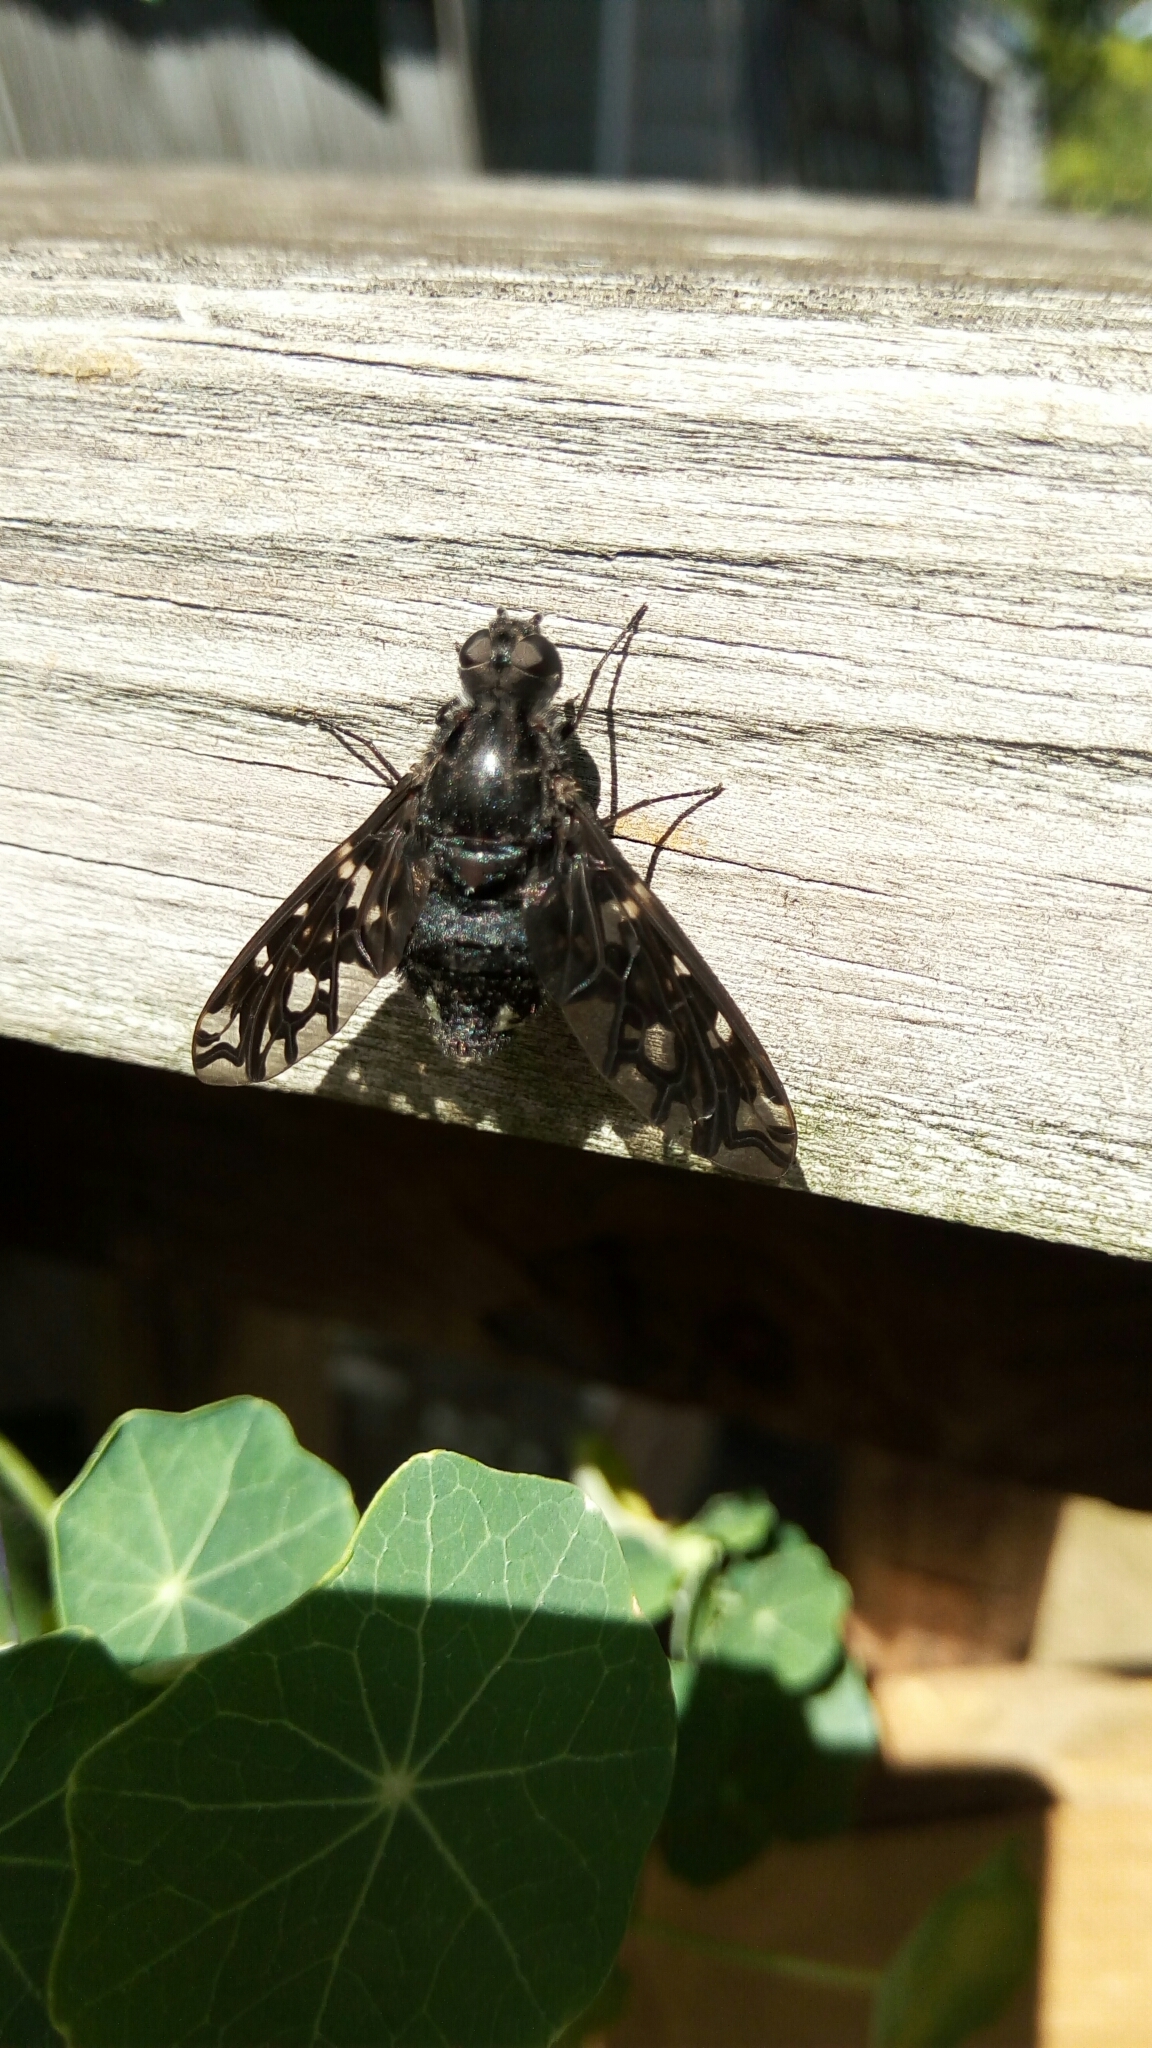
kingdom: Animalia
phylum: Arthropoda
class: Insecta
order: Diptera
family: Bombyliidae
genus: Xenox
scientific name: Xenox tigrinus
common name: Tiger bee fly
